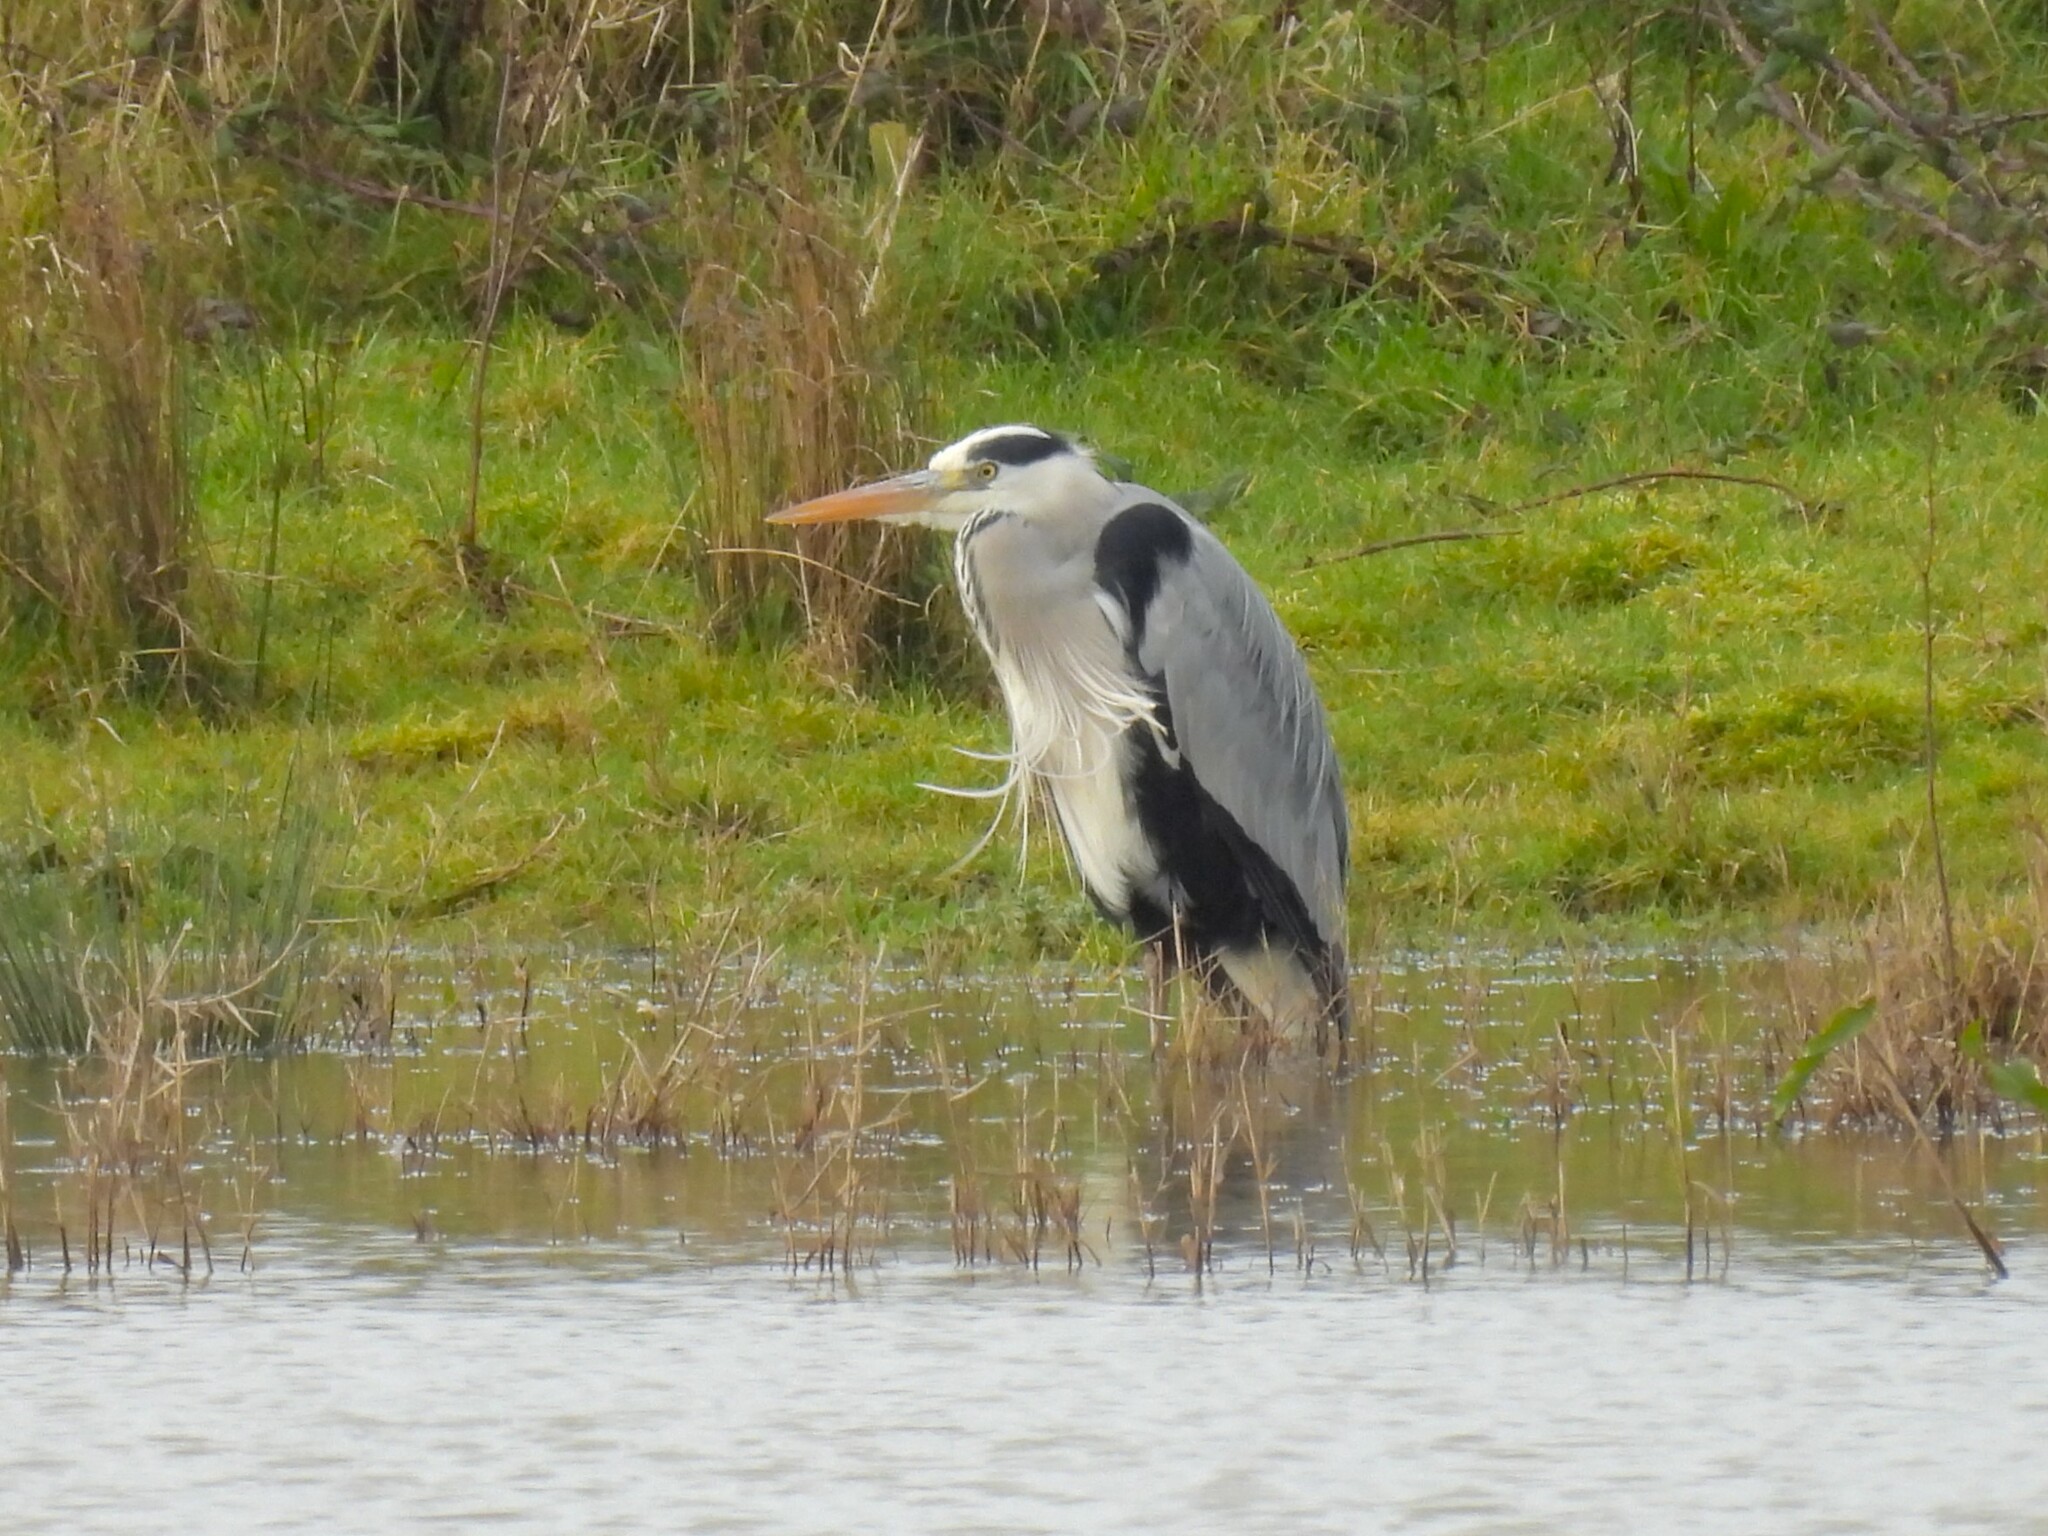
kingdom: Animalia
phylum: Chordata
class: Aves
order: Pelecaniformes
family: Ardeidae
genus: Ardea
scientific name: Ardea cinerea
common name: Grey heron
